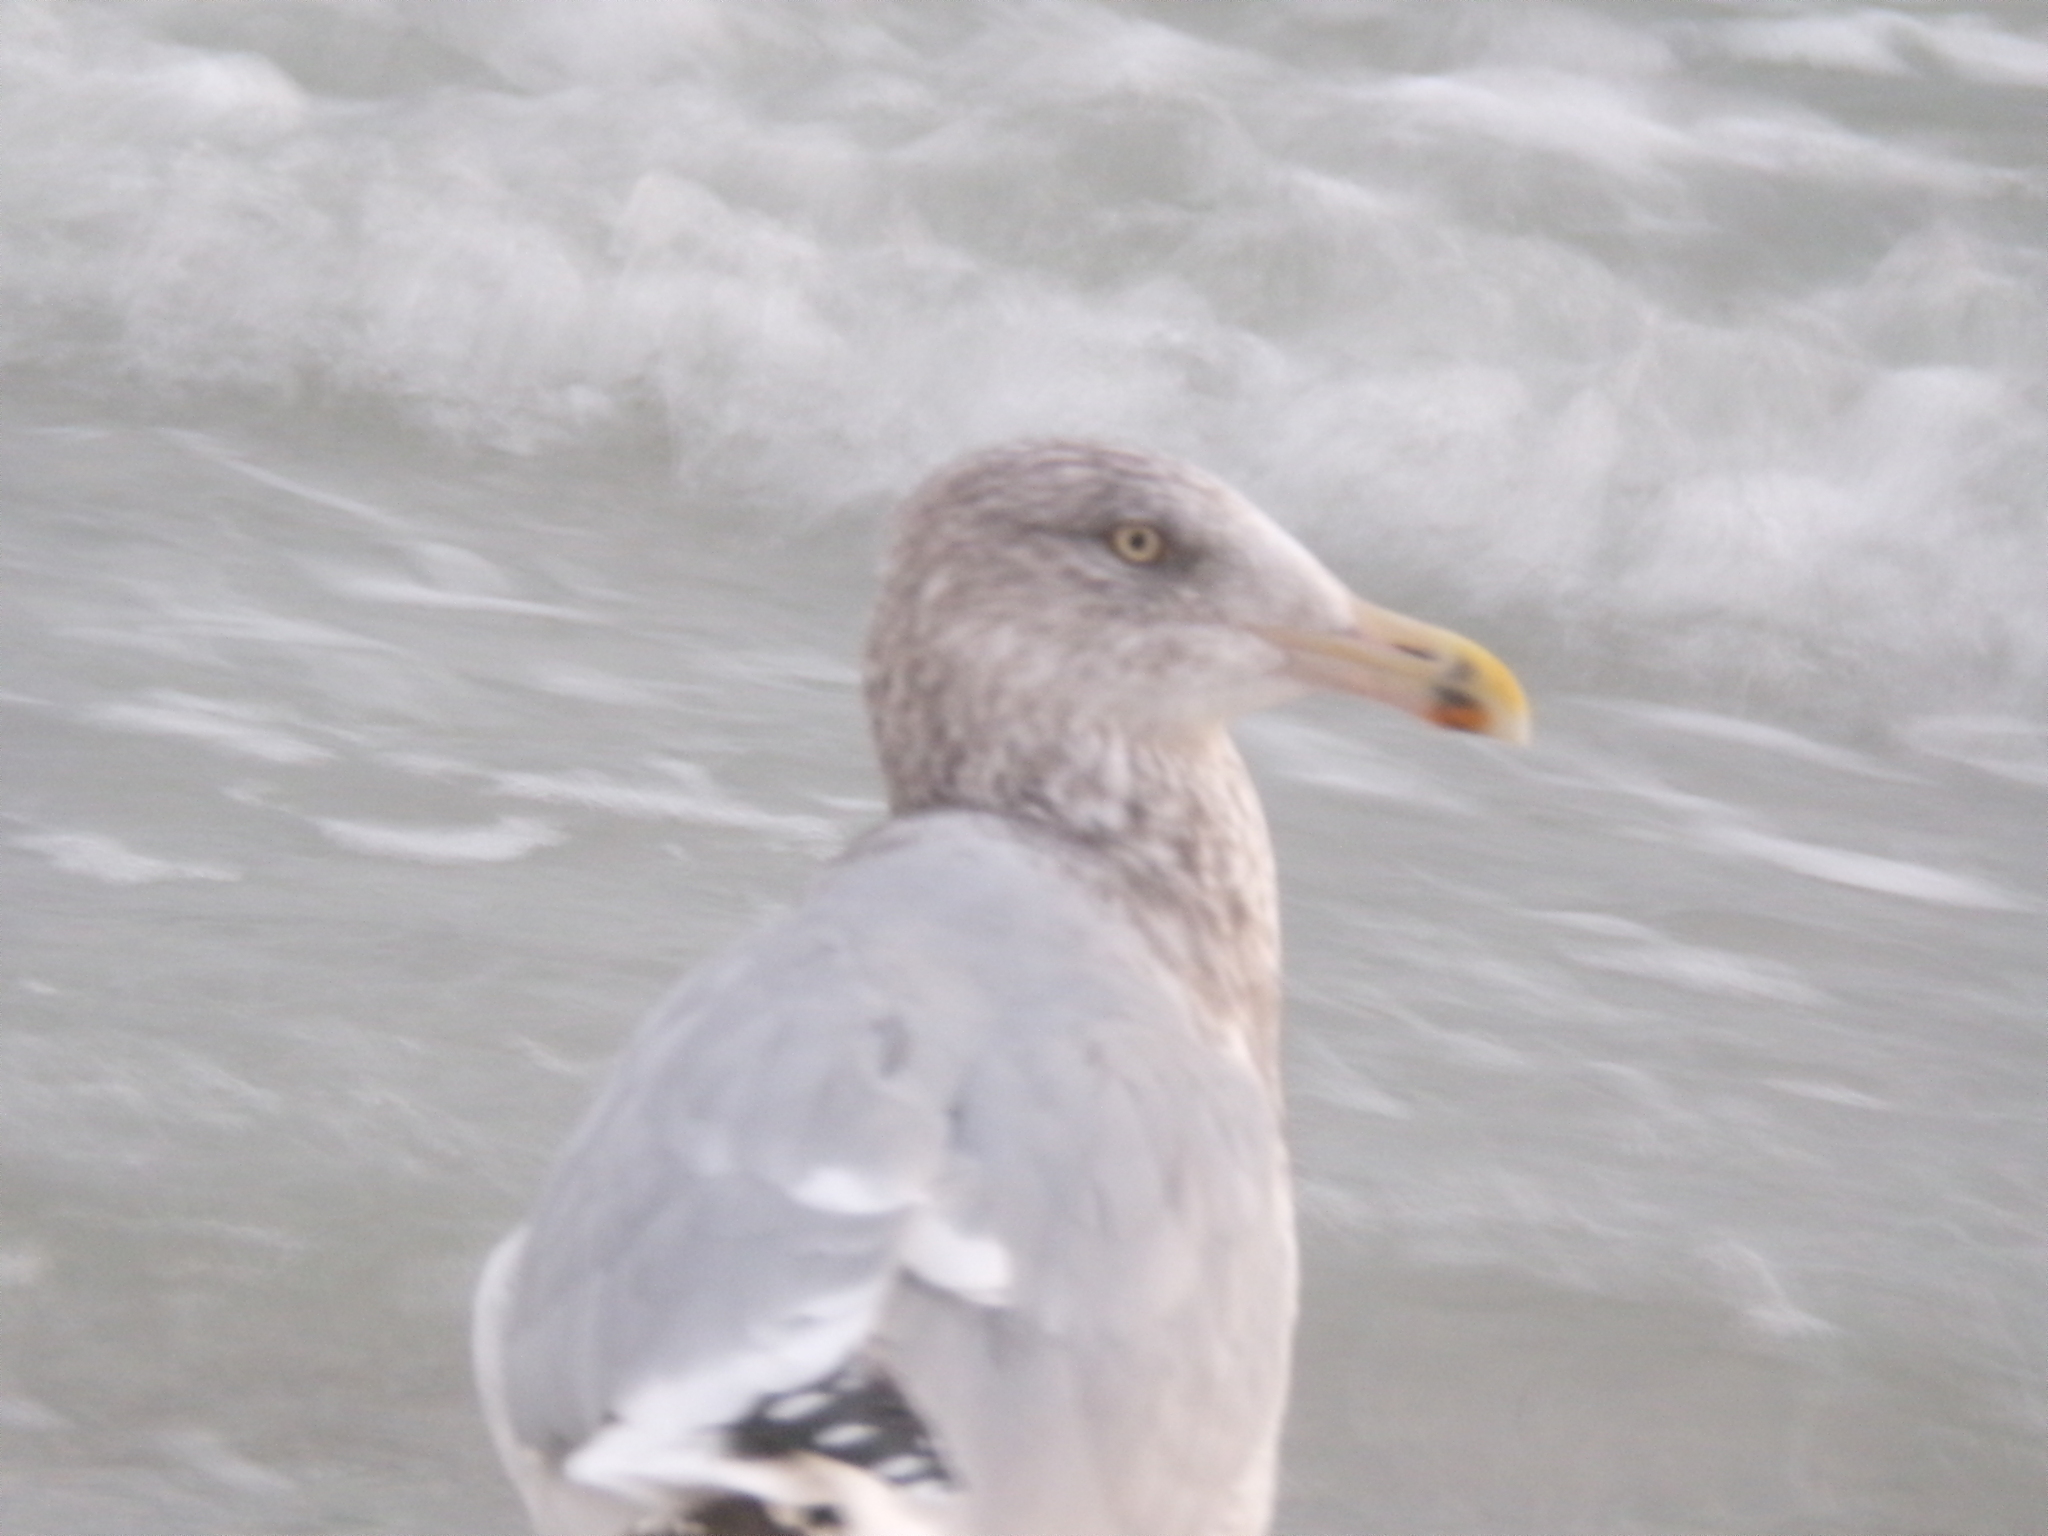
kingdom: Animalia
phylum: Chordata
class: Aves
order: Charadriiformes
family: Laridae
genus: Larus
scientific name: Larus smithsonianus
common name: American herring gull
